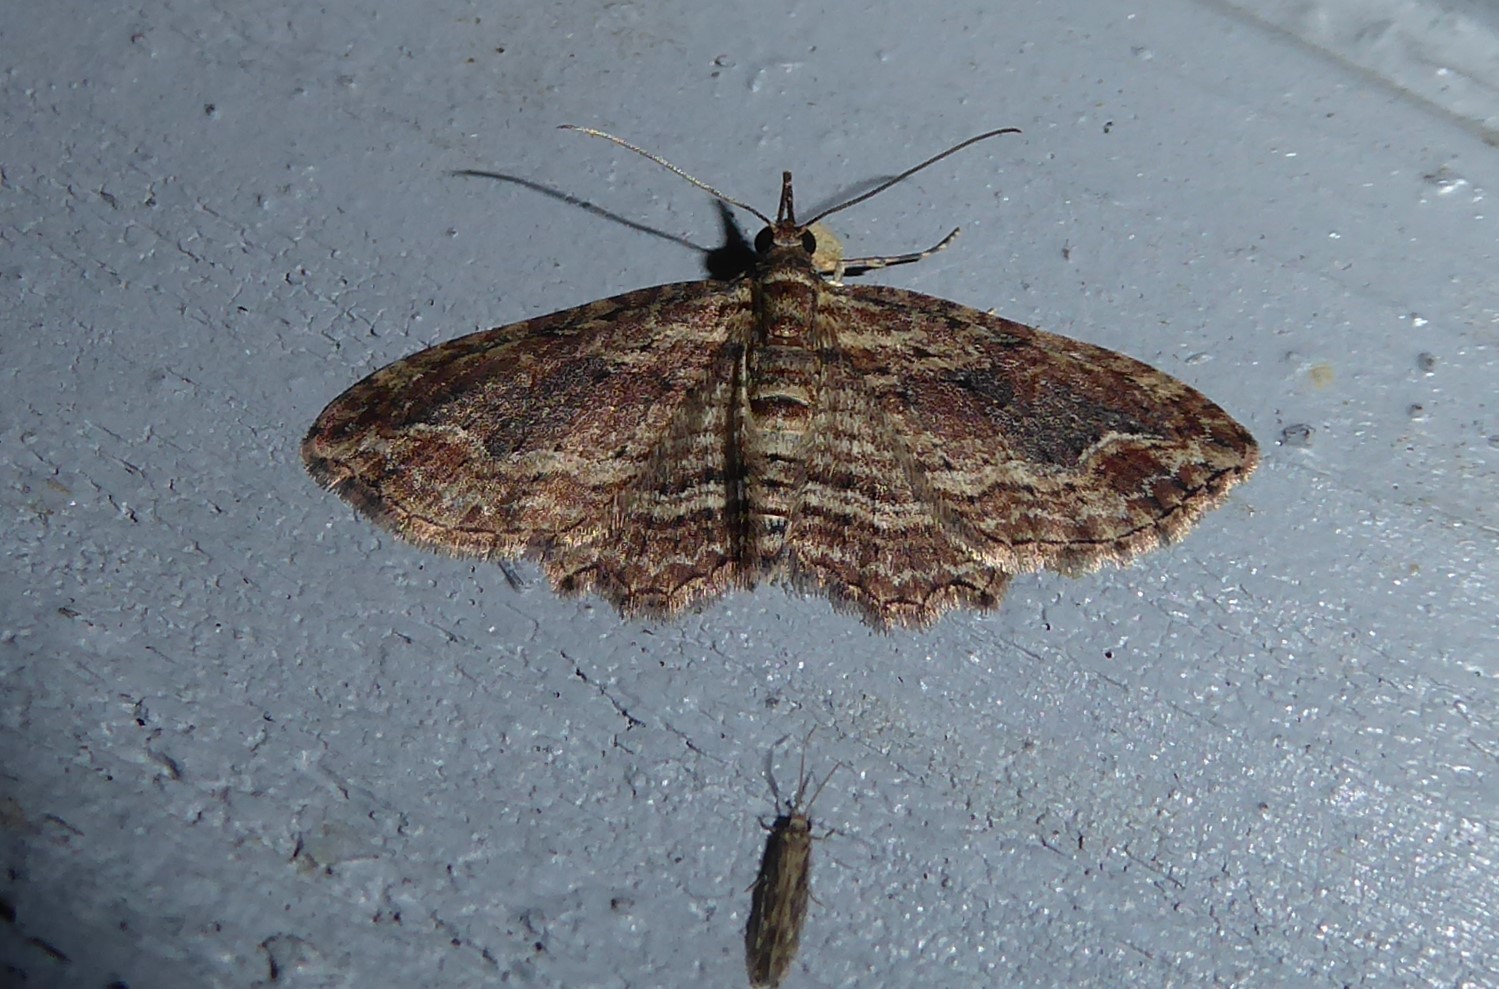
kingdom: Animalia
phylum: Arthropoda
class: Insecta
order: Lepidoptera
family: Geometridae
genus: Chloroclystis
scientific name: Chloroclystis filata
